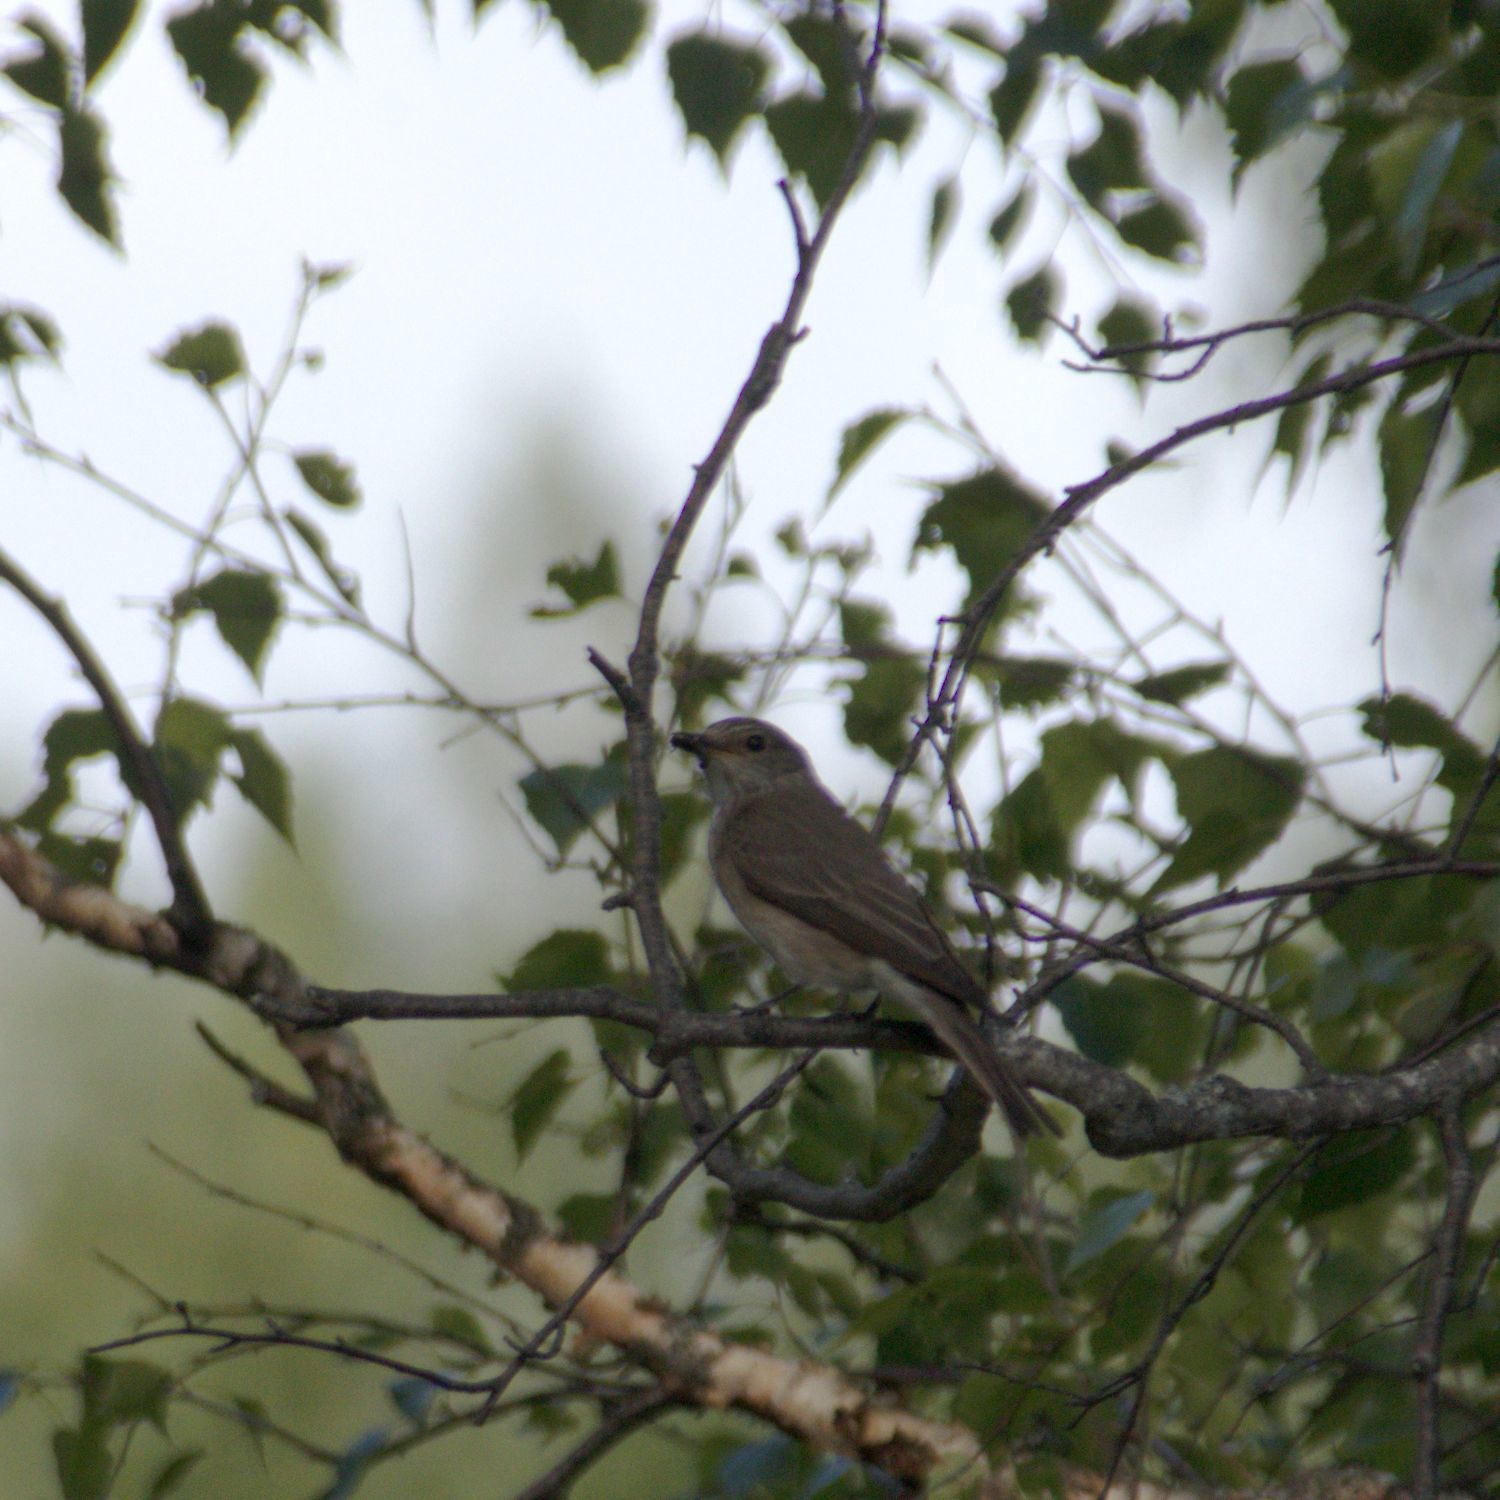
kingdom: Animalia
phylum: Chordata
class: Aves
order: Passeriformes
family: Muscicapidae
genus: Muscicapa
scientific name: Muscicapa striata
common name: Spotted flycatcher
